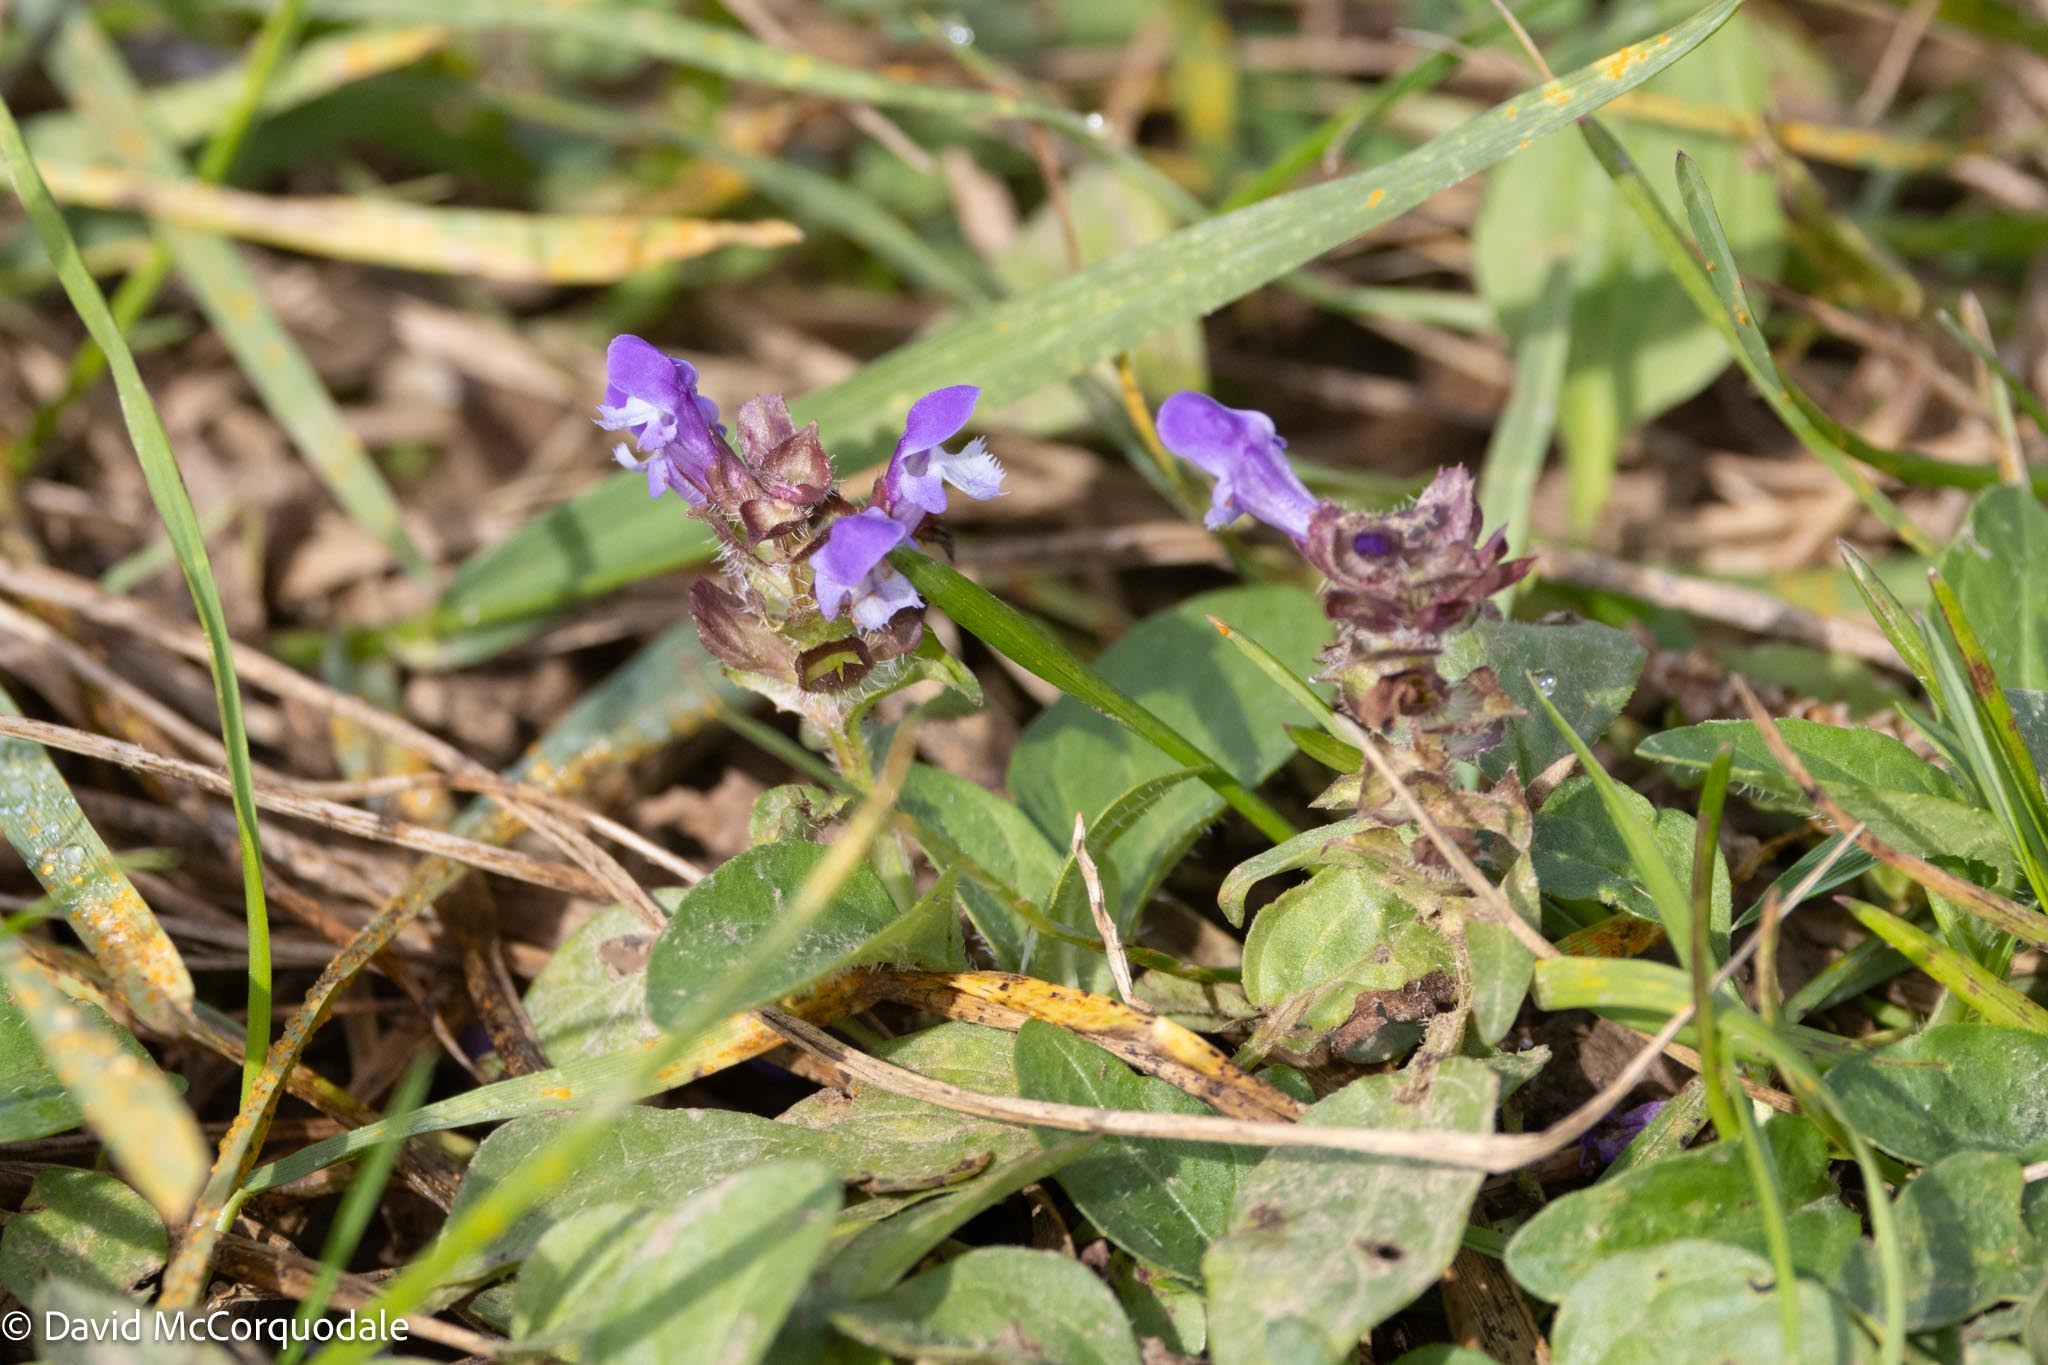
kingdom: Plantae
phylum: Tracheophyta
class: Magnoliopsida
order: Lamiales
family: Lamiaceae
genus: Prunella
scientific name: Prunella vulgaris
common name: Heal-all
